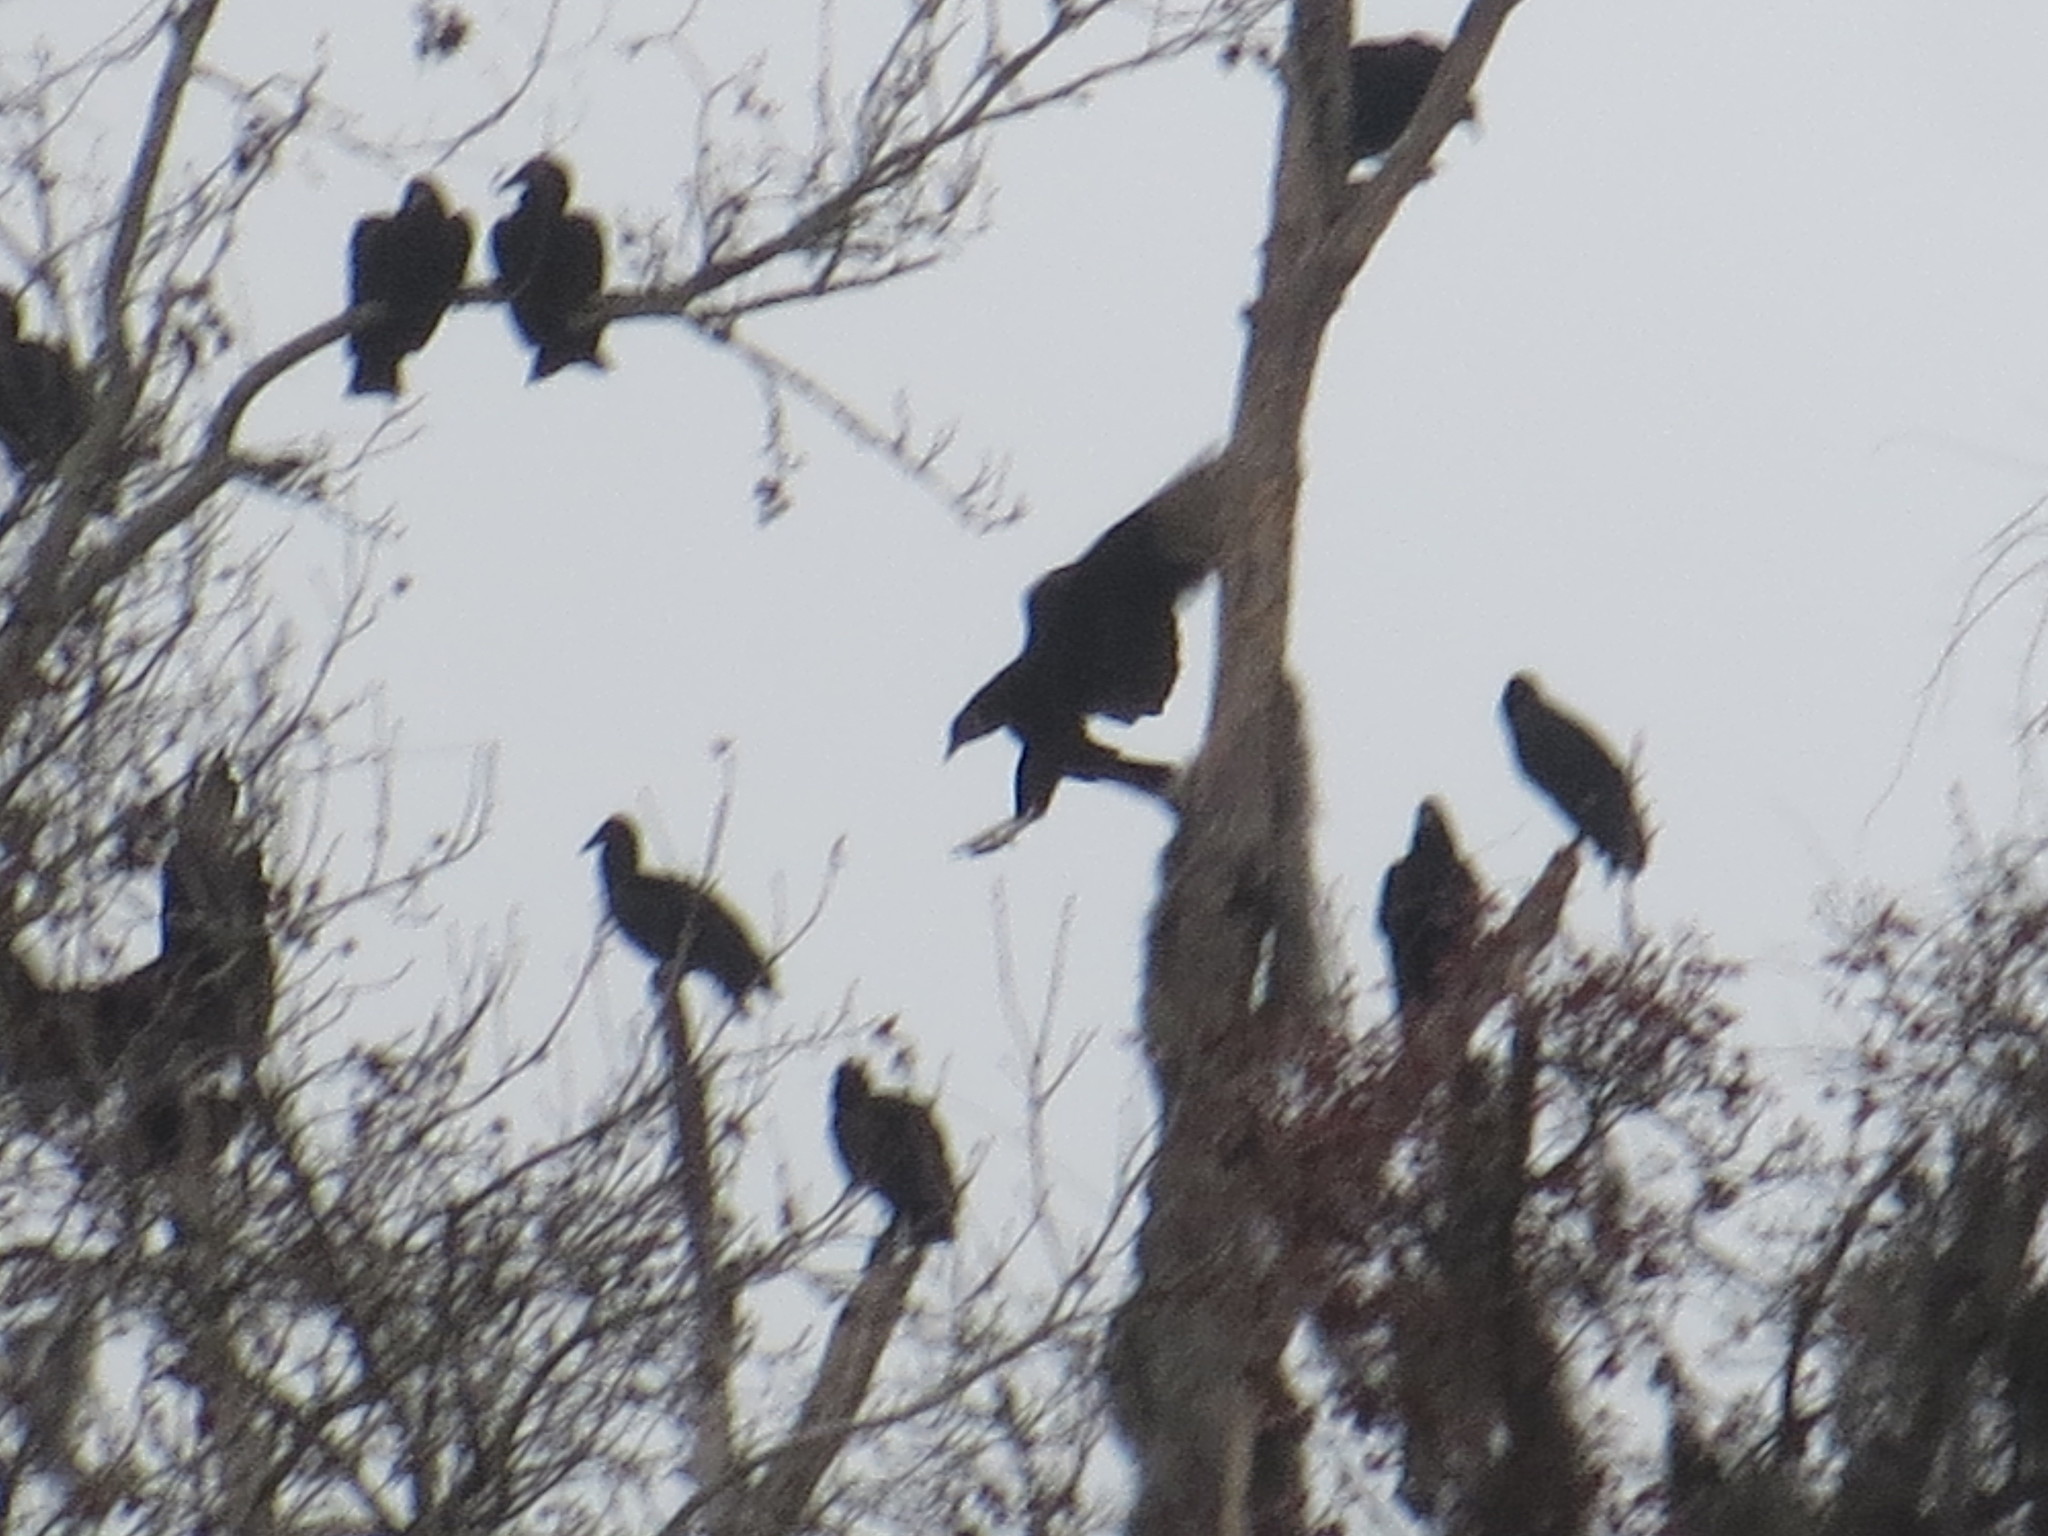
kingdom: Animalia
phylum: Chordata
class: Aves
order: Accipitriformes
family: Cathartidae
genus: Coragyps
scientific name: Coragyps atratus
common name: Black vulture
